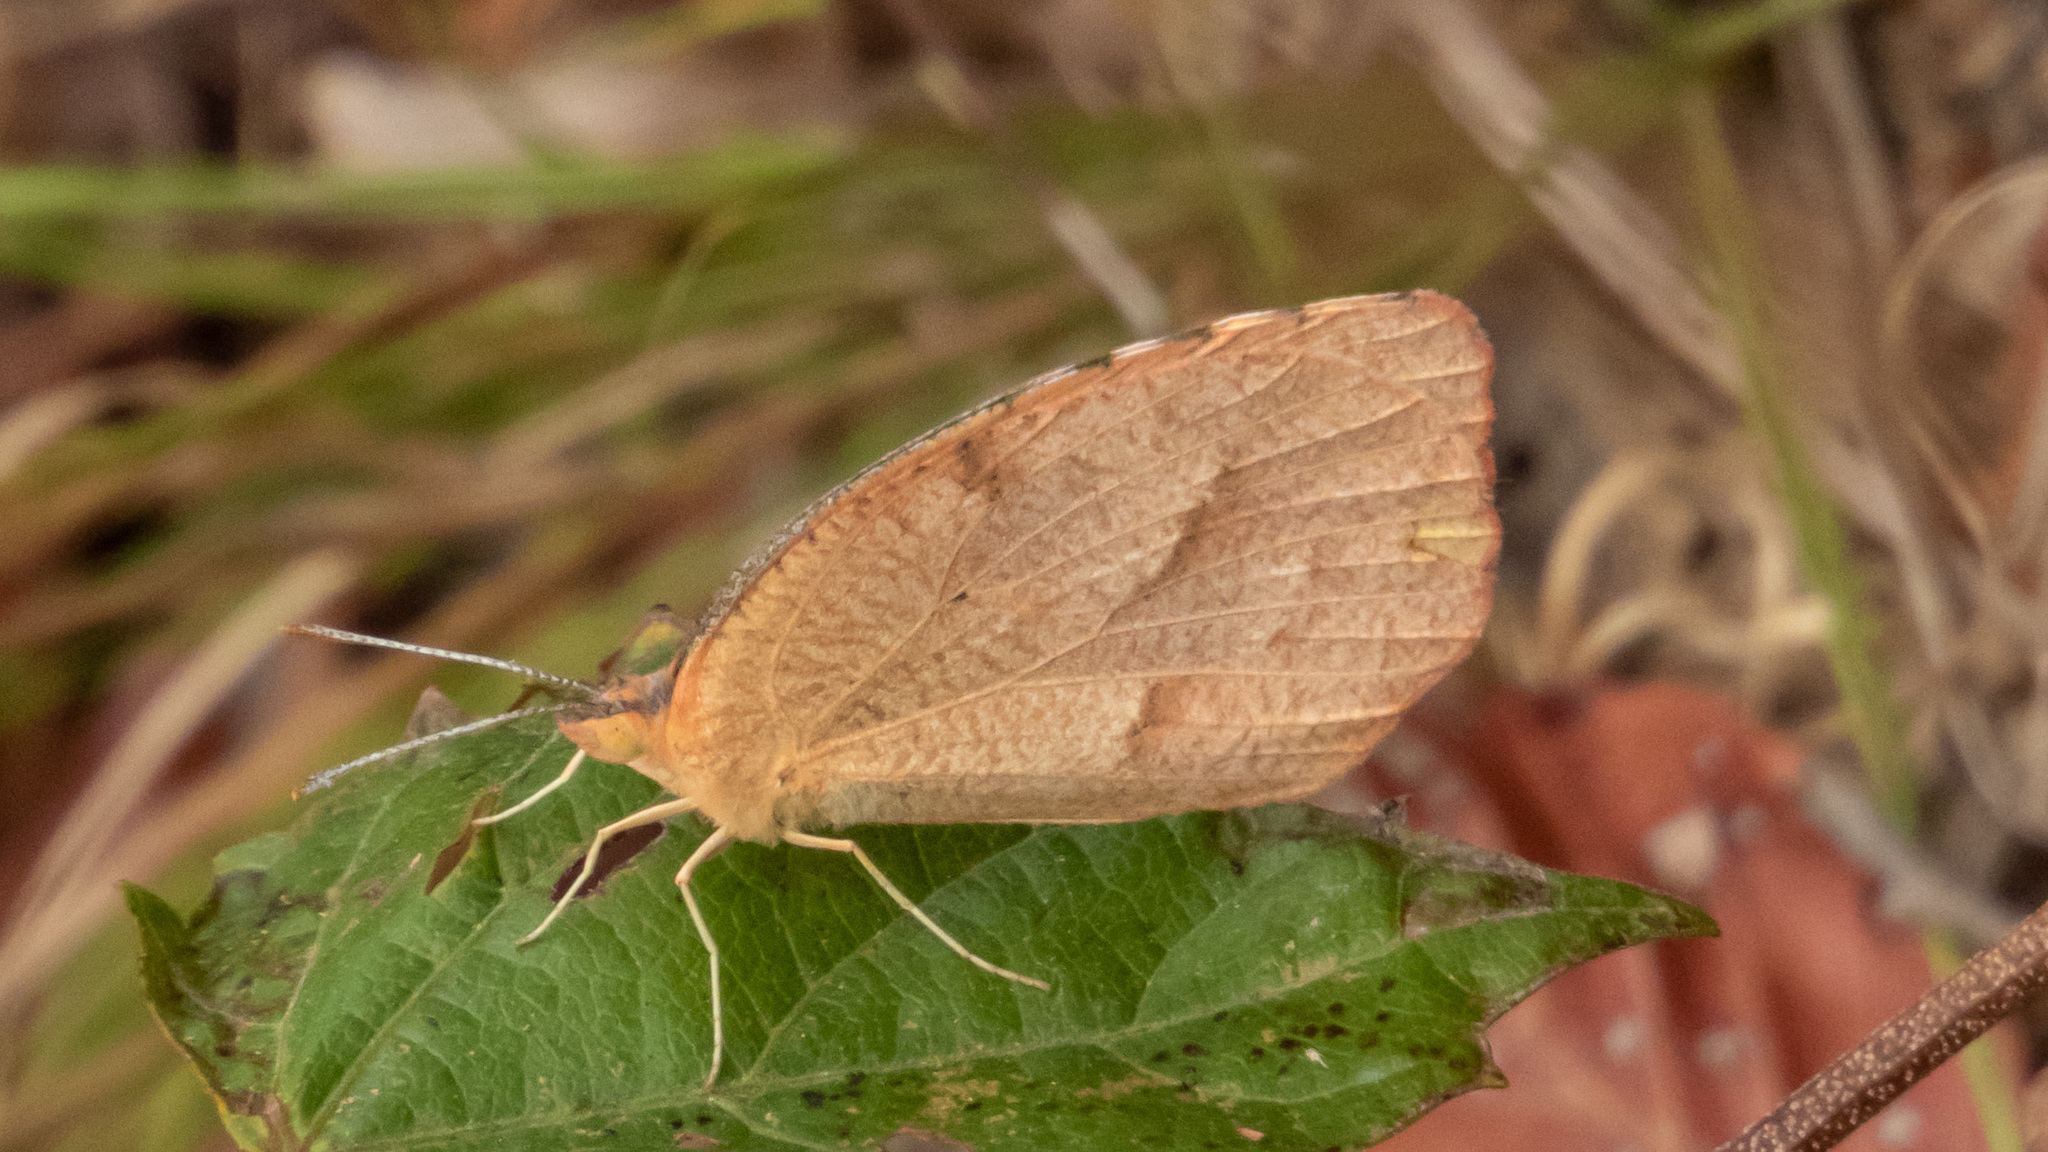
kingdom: Animalia
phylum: Arthropoda
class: Insecta
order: Lepidoptera
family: Pieridae
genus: Abaeis
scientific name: Abaeis nicippe
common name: Sleepy orange
